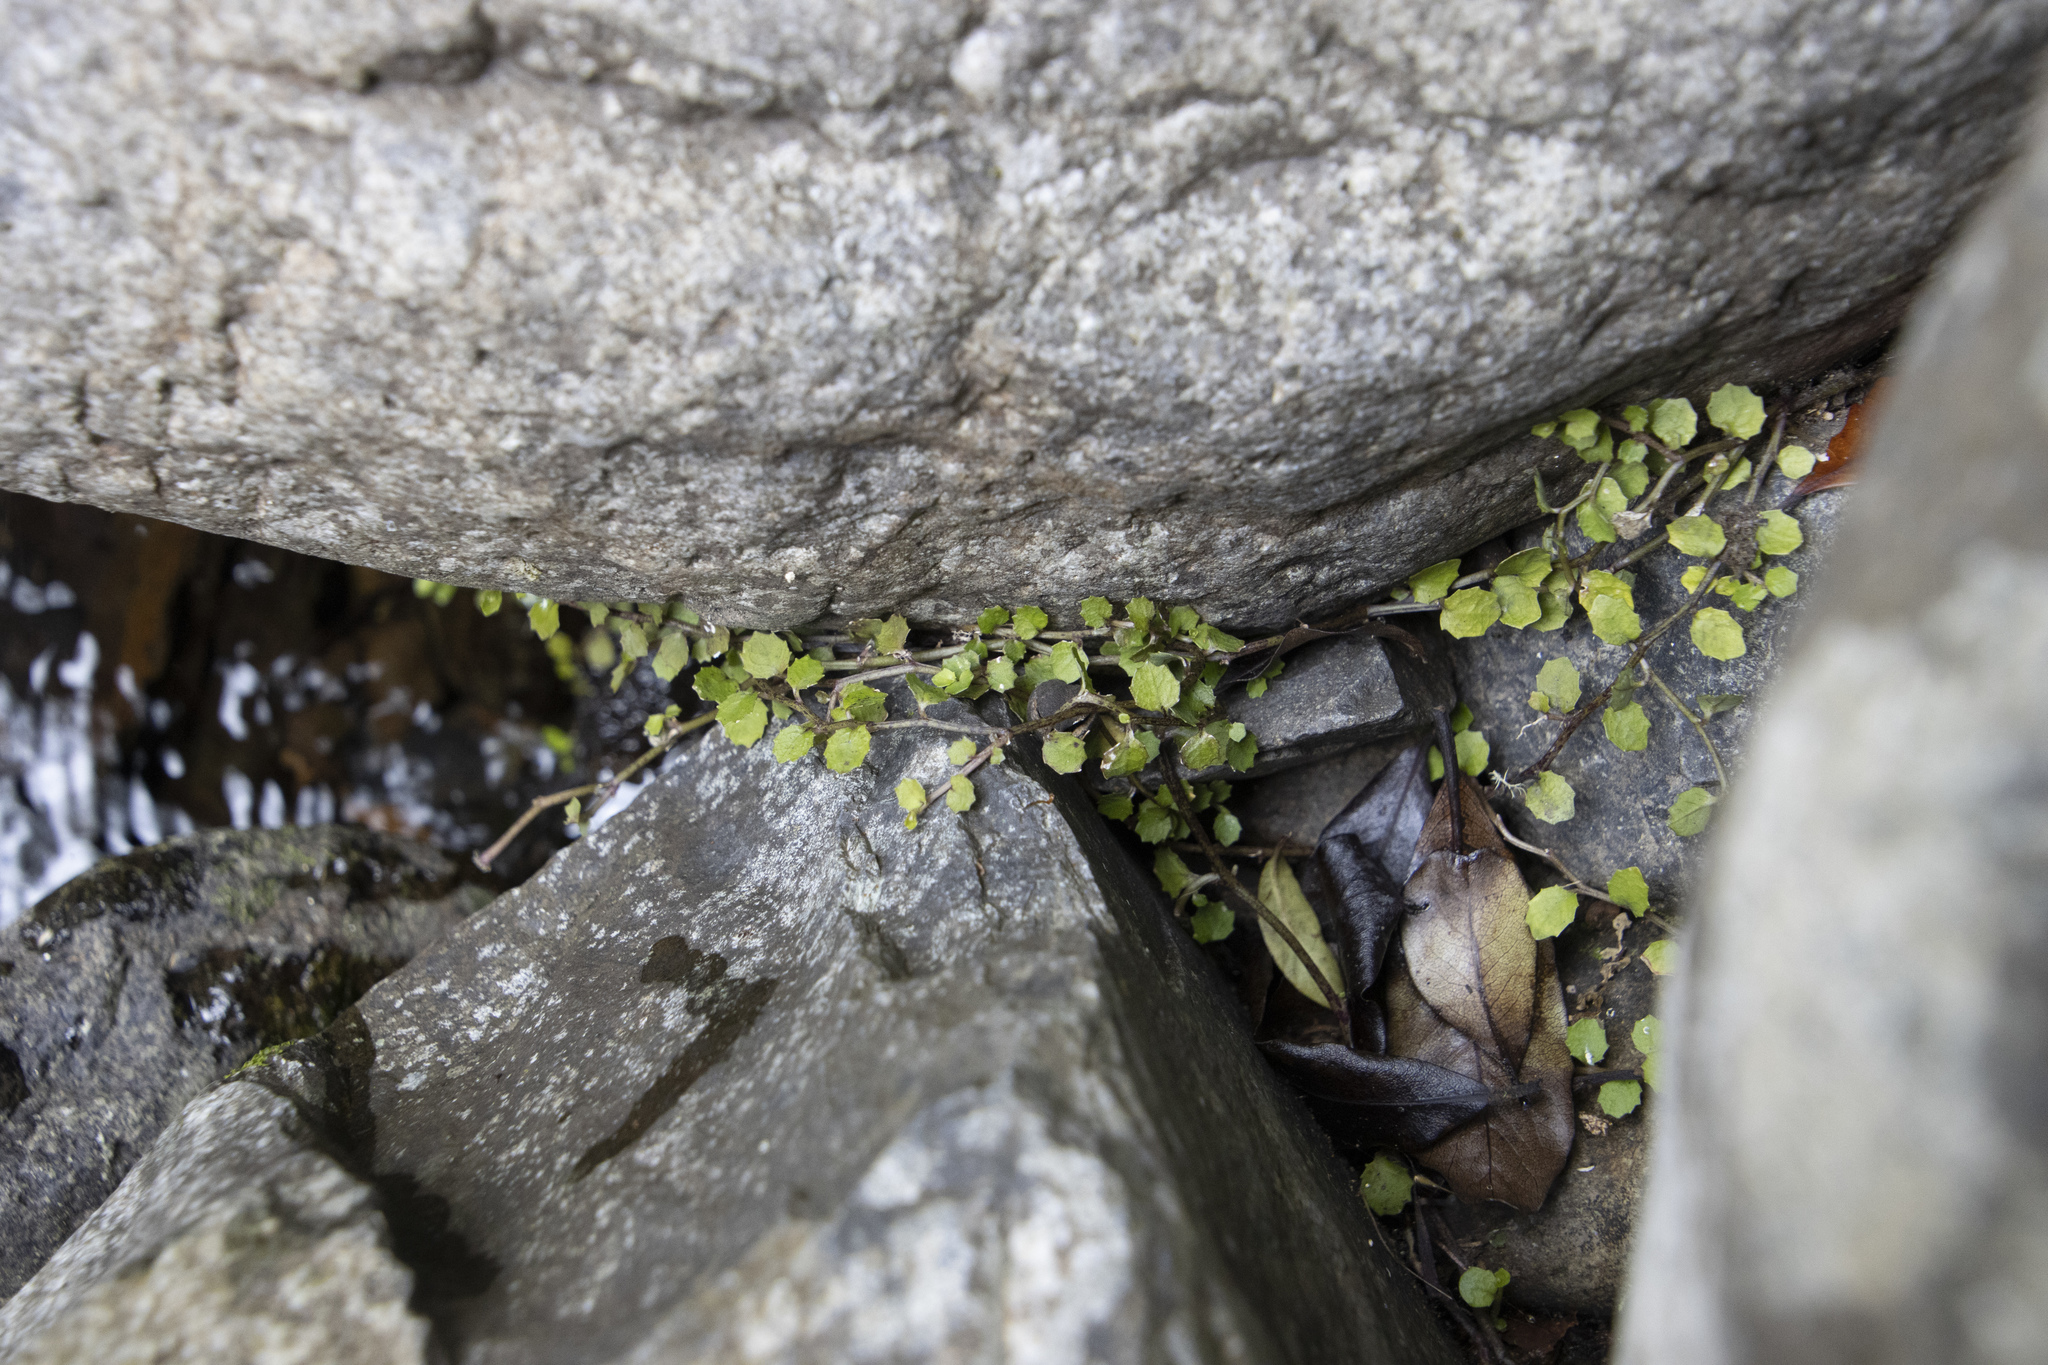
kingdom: Plantae
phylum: Tracheophyta
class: Magnoliopsida
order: Asterales
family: Campanulaceae
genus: Lobelia
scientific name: Lobelia angulata
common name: Lawn lobelia
